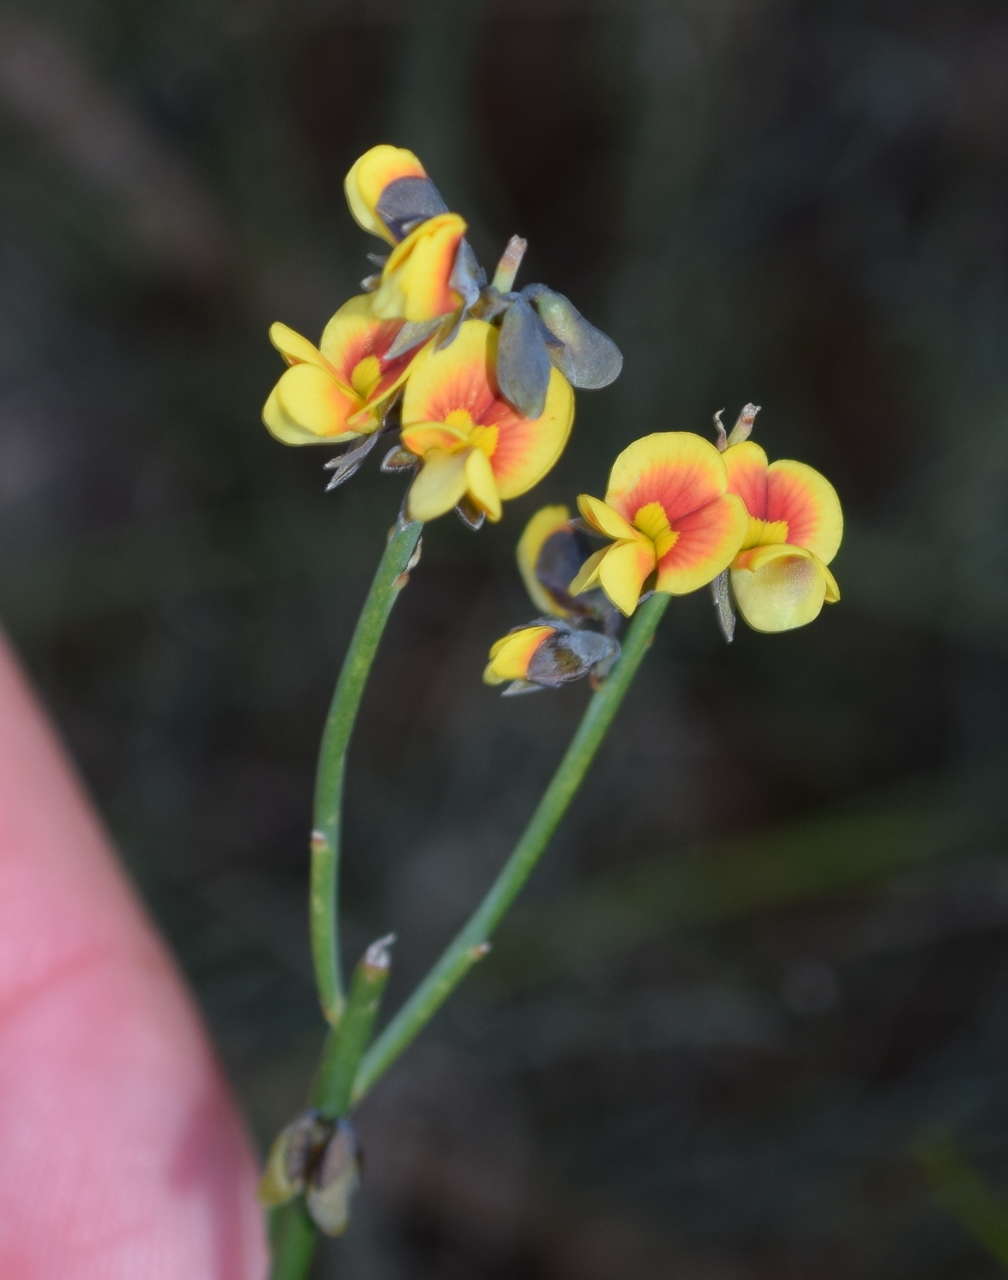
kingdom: Plantae
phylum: Tracheophyta
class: Magnoliopsida
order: Fabales
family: Fabaceae
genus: Sphaerolobium
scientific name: Sphaerolobium vimineum
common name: Leafless globe-pea
